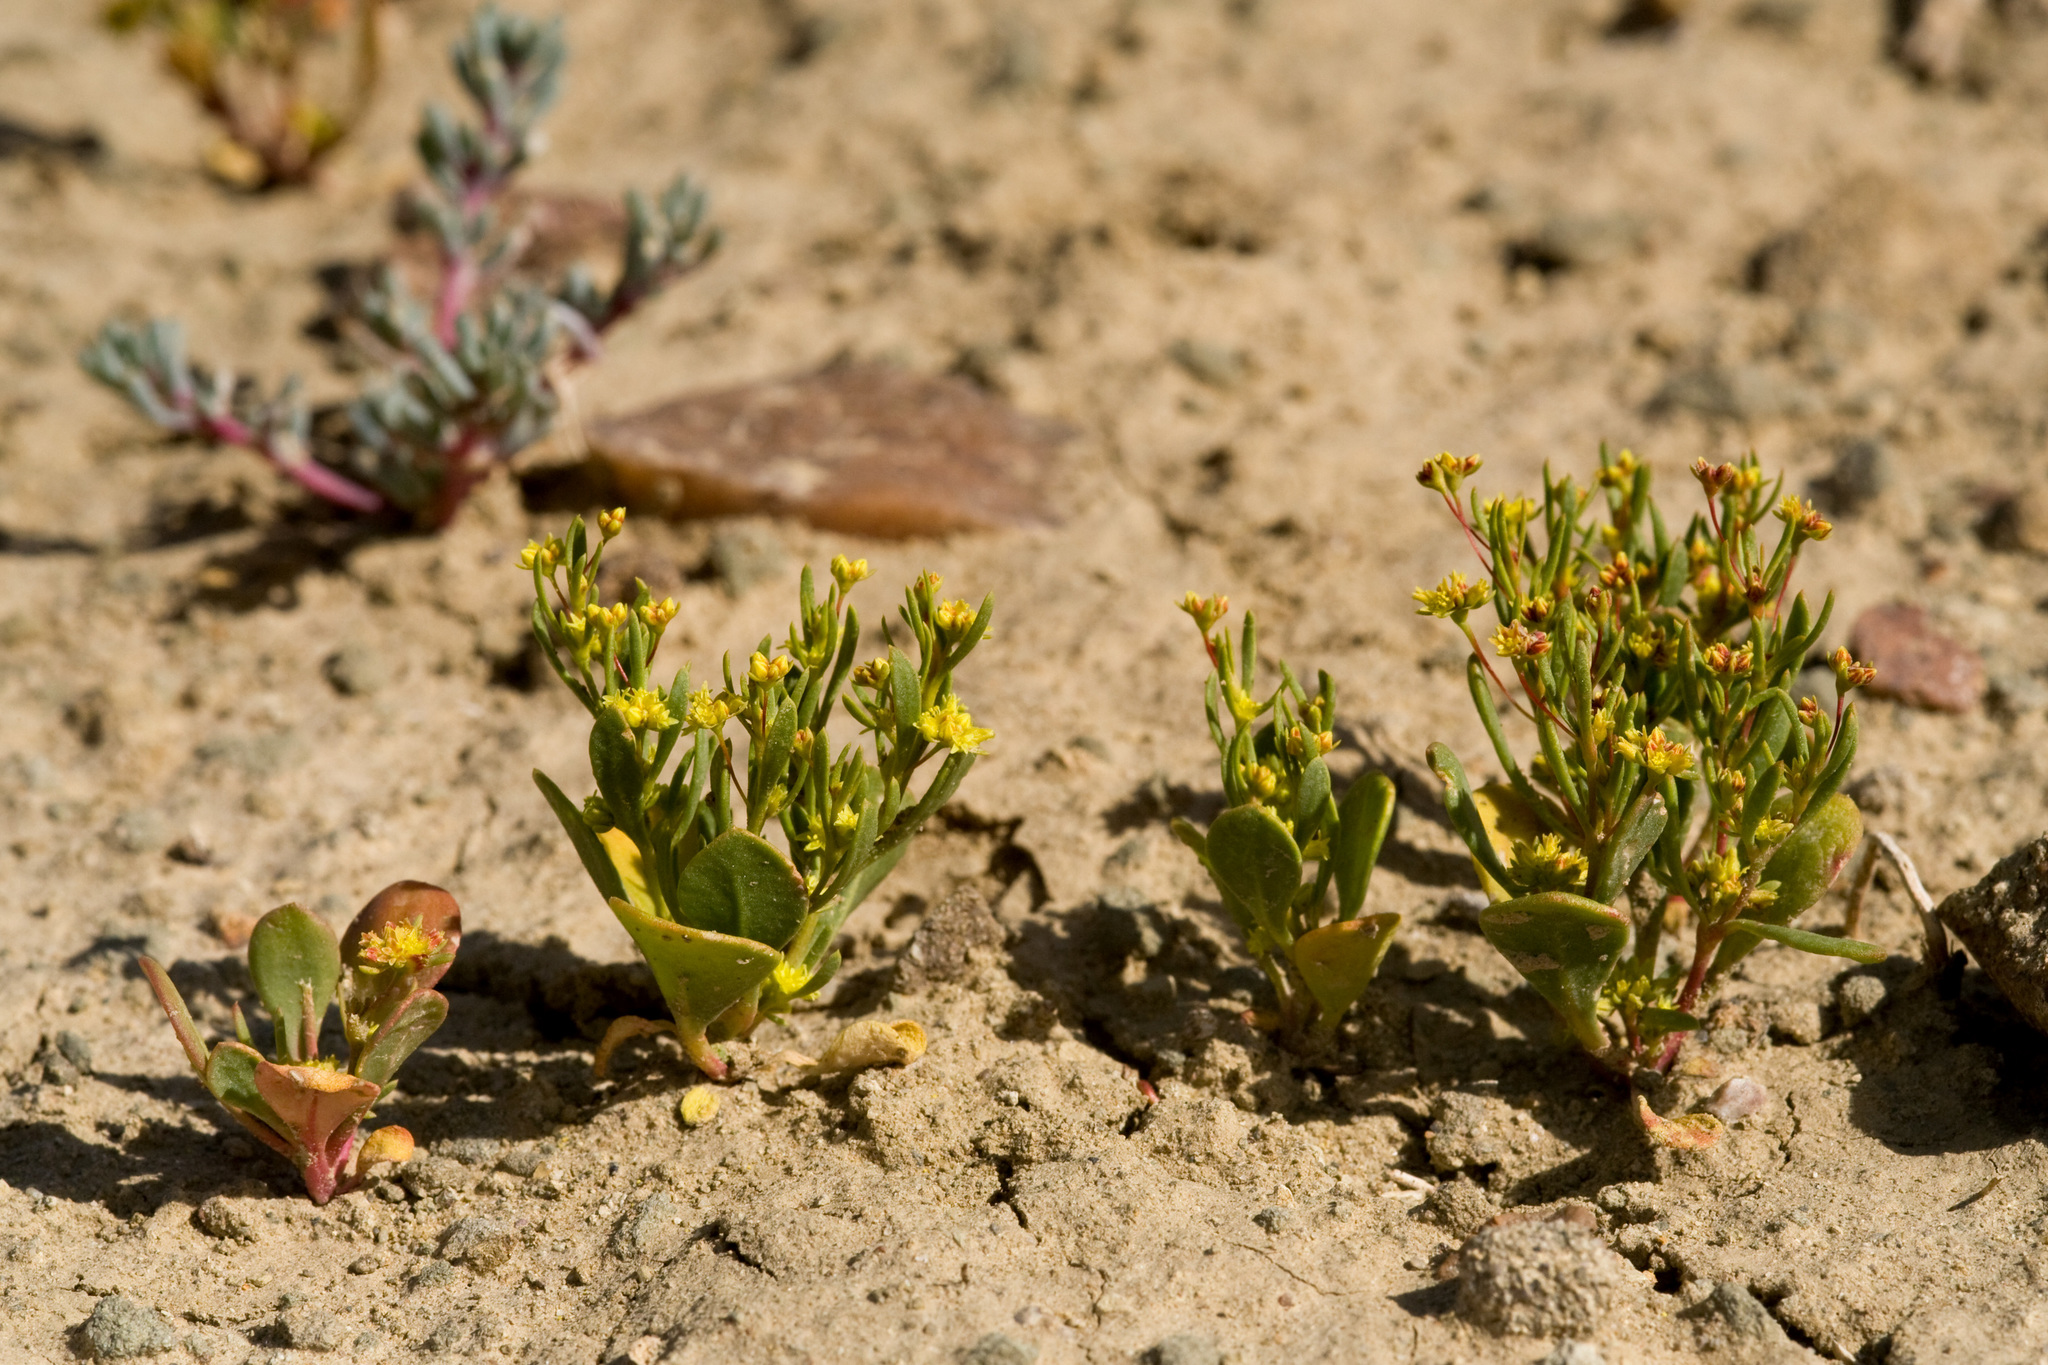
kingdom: Plantae
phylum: Tracheophyta
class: Magnoliopsida
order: Caryophyllales
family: Polygonaceae
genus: Stenogonum
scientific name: Stenogonum salsuginosum
